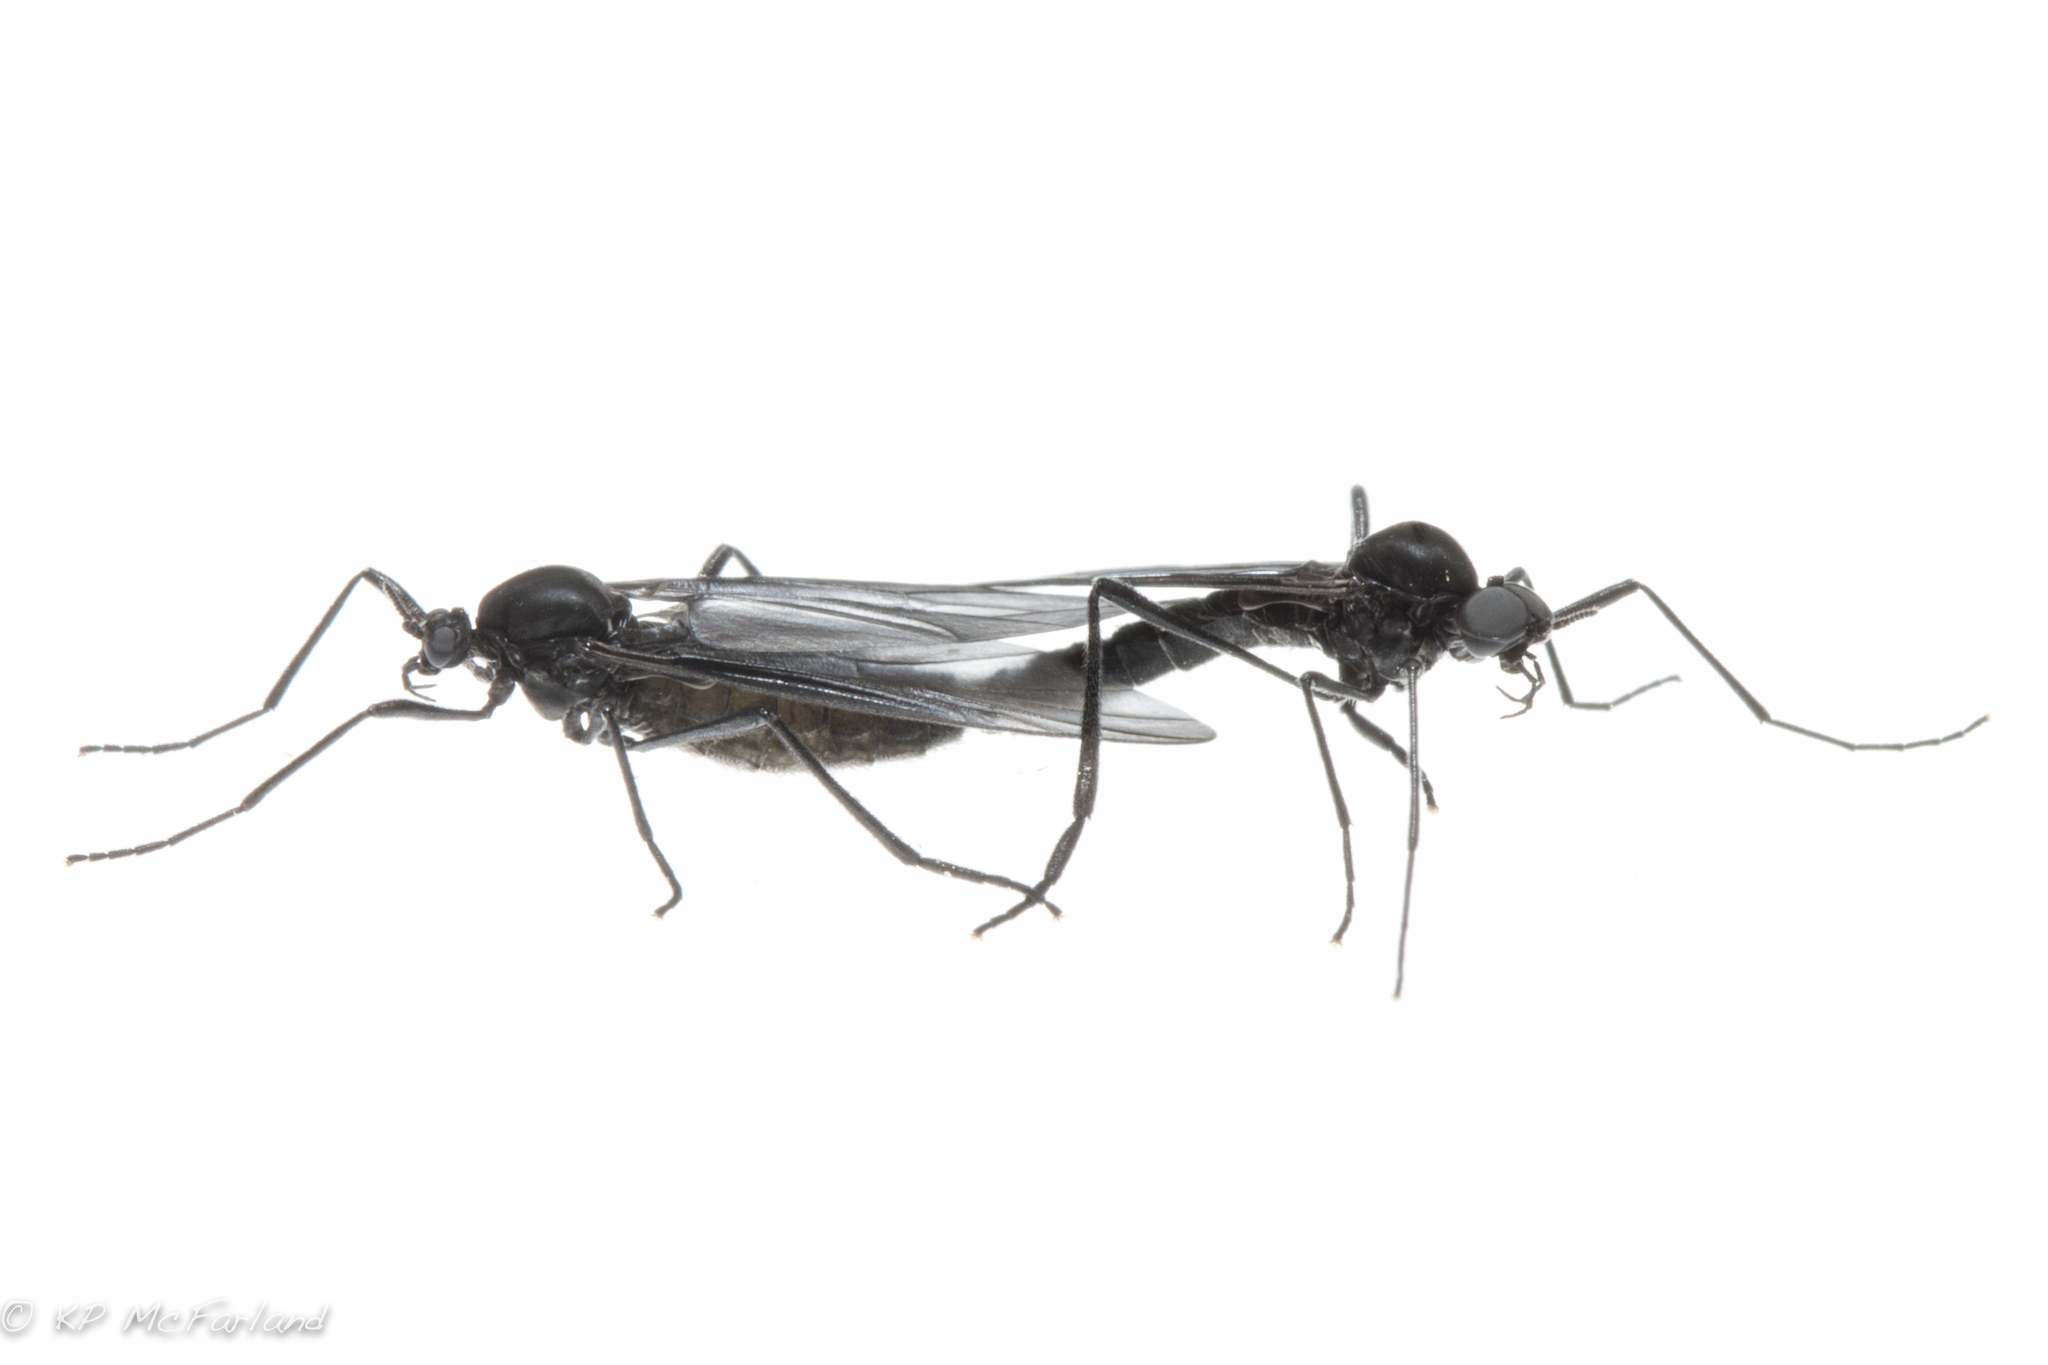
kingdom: Animalia
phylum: Arthropoda
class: Insecta
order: Diptera
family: Bibionidae
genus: Penthetria
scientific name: Penthetria heteroptera
